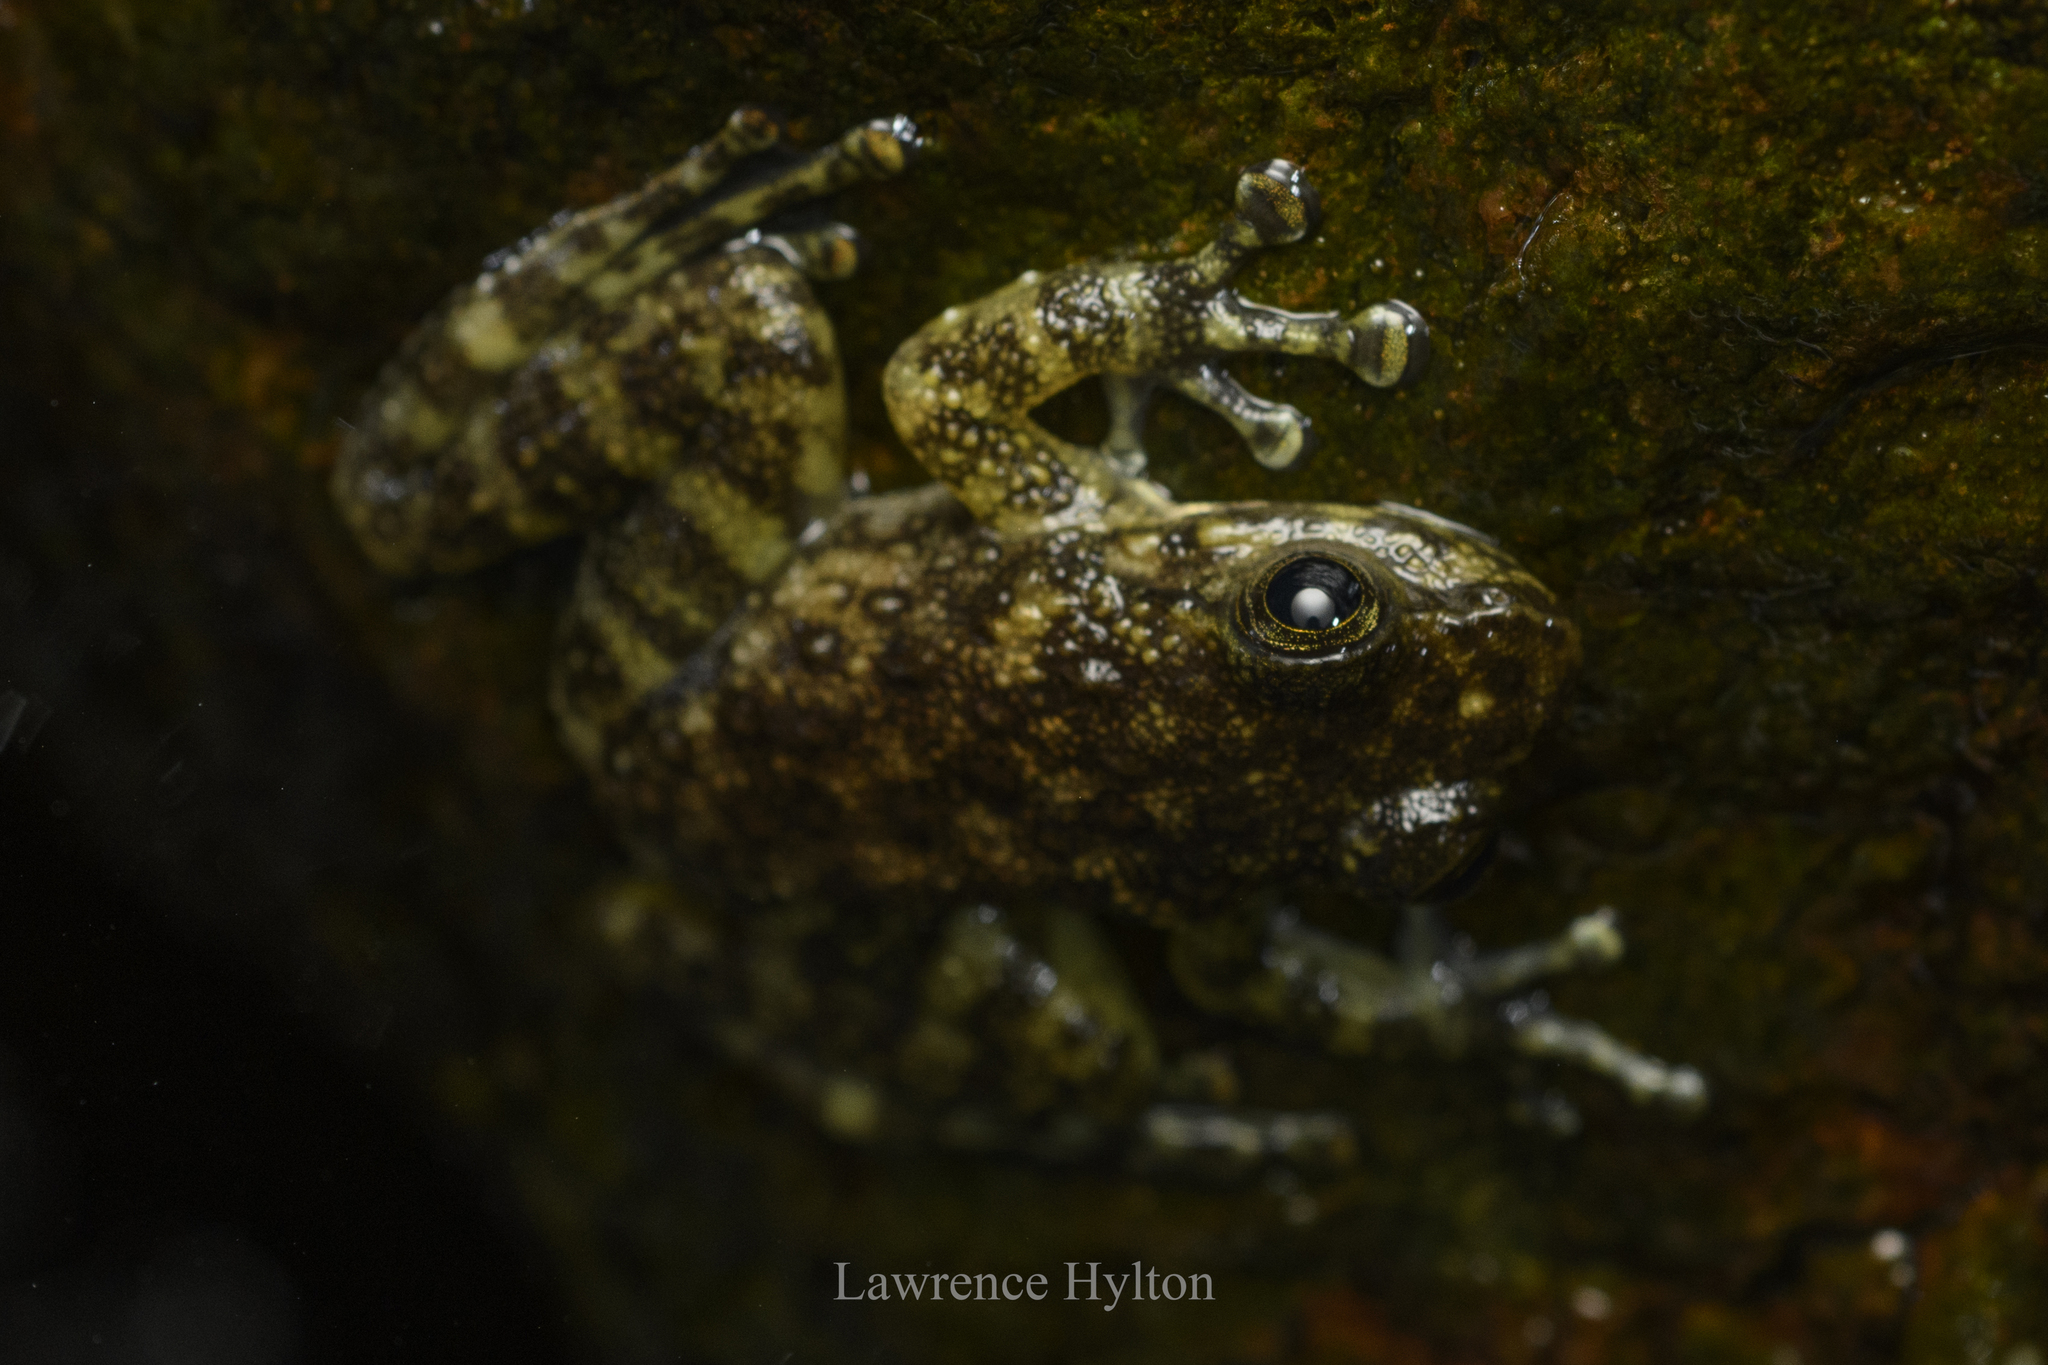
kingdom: Animalia
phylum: Chordata
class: Amphibia
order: Anura
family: Ranidae
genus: Amolops
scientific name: Amolops hongkongensis
